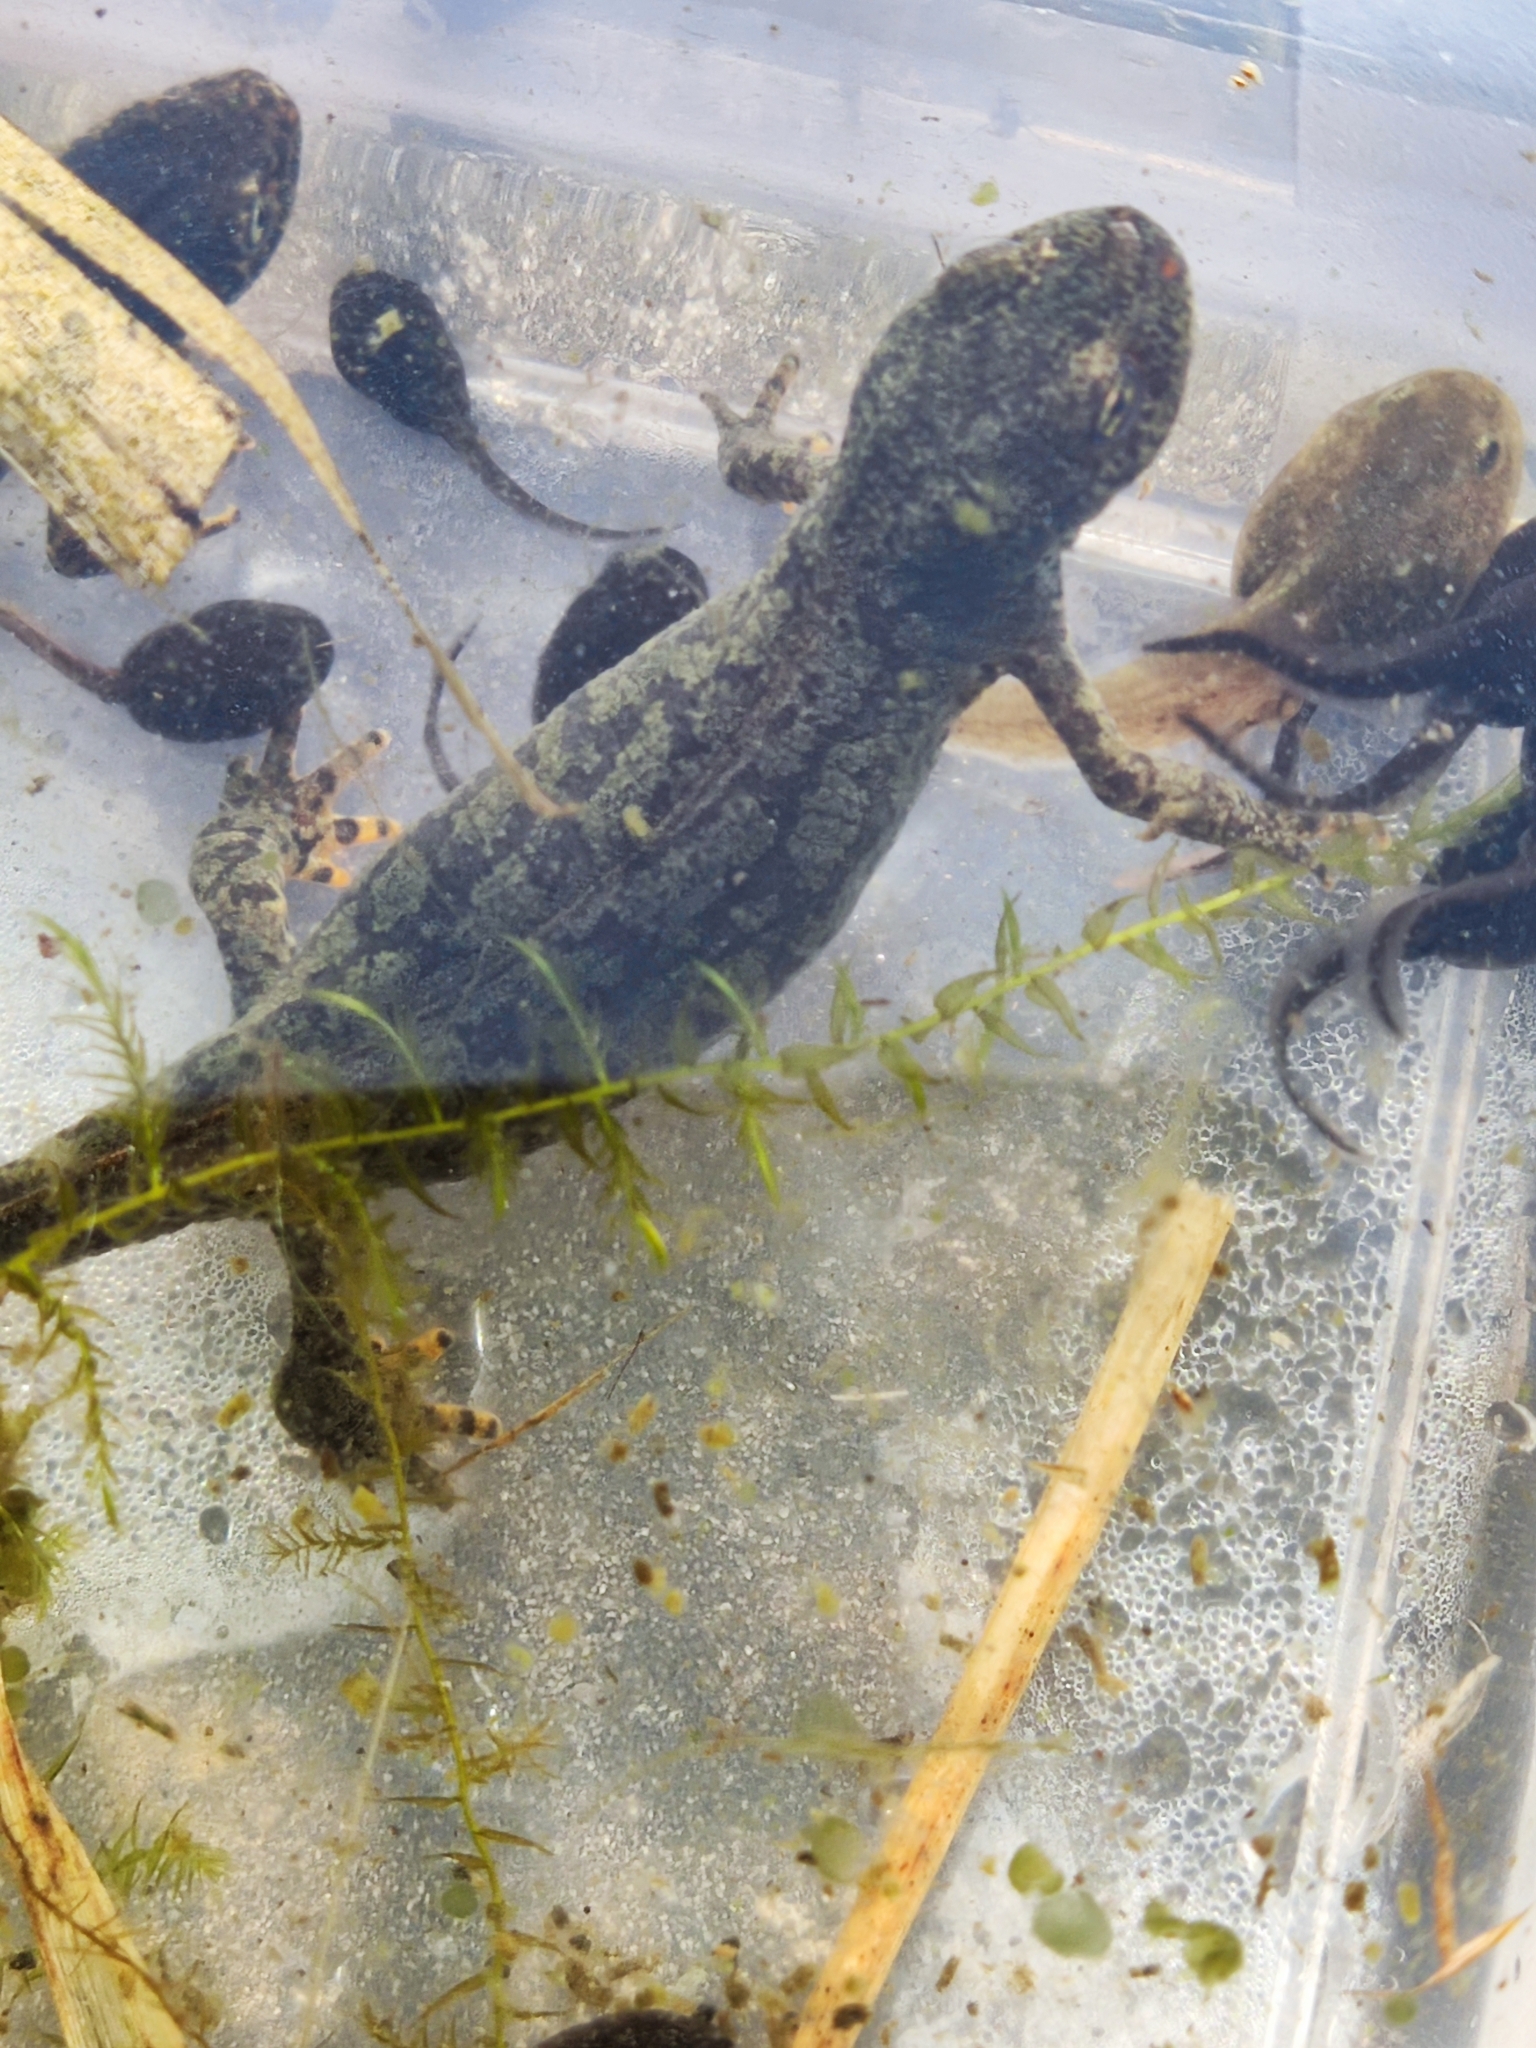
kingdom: Animalia
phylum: Chordata
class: Amphibia
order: Caudata
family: Salamandridae
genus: Ichthyosaura
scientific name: Ichthyosaura alpestris
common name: Alpine newt
